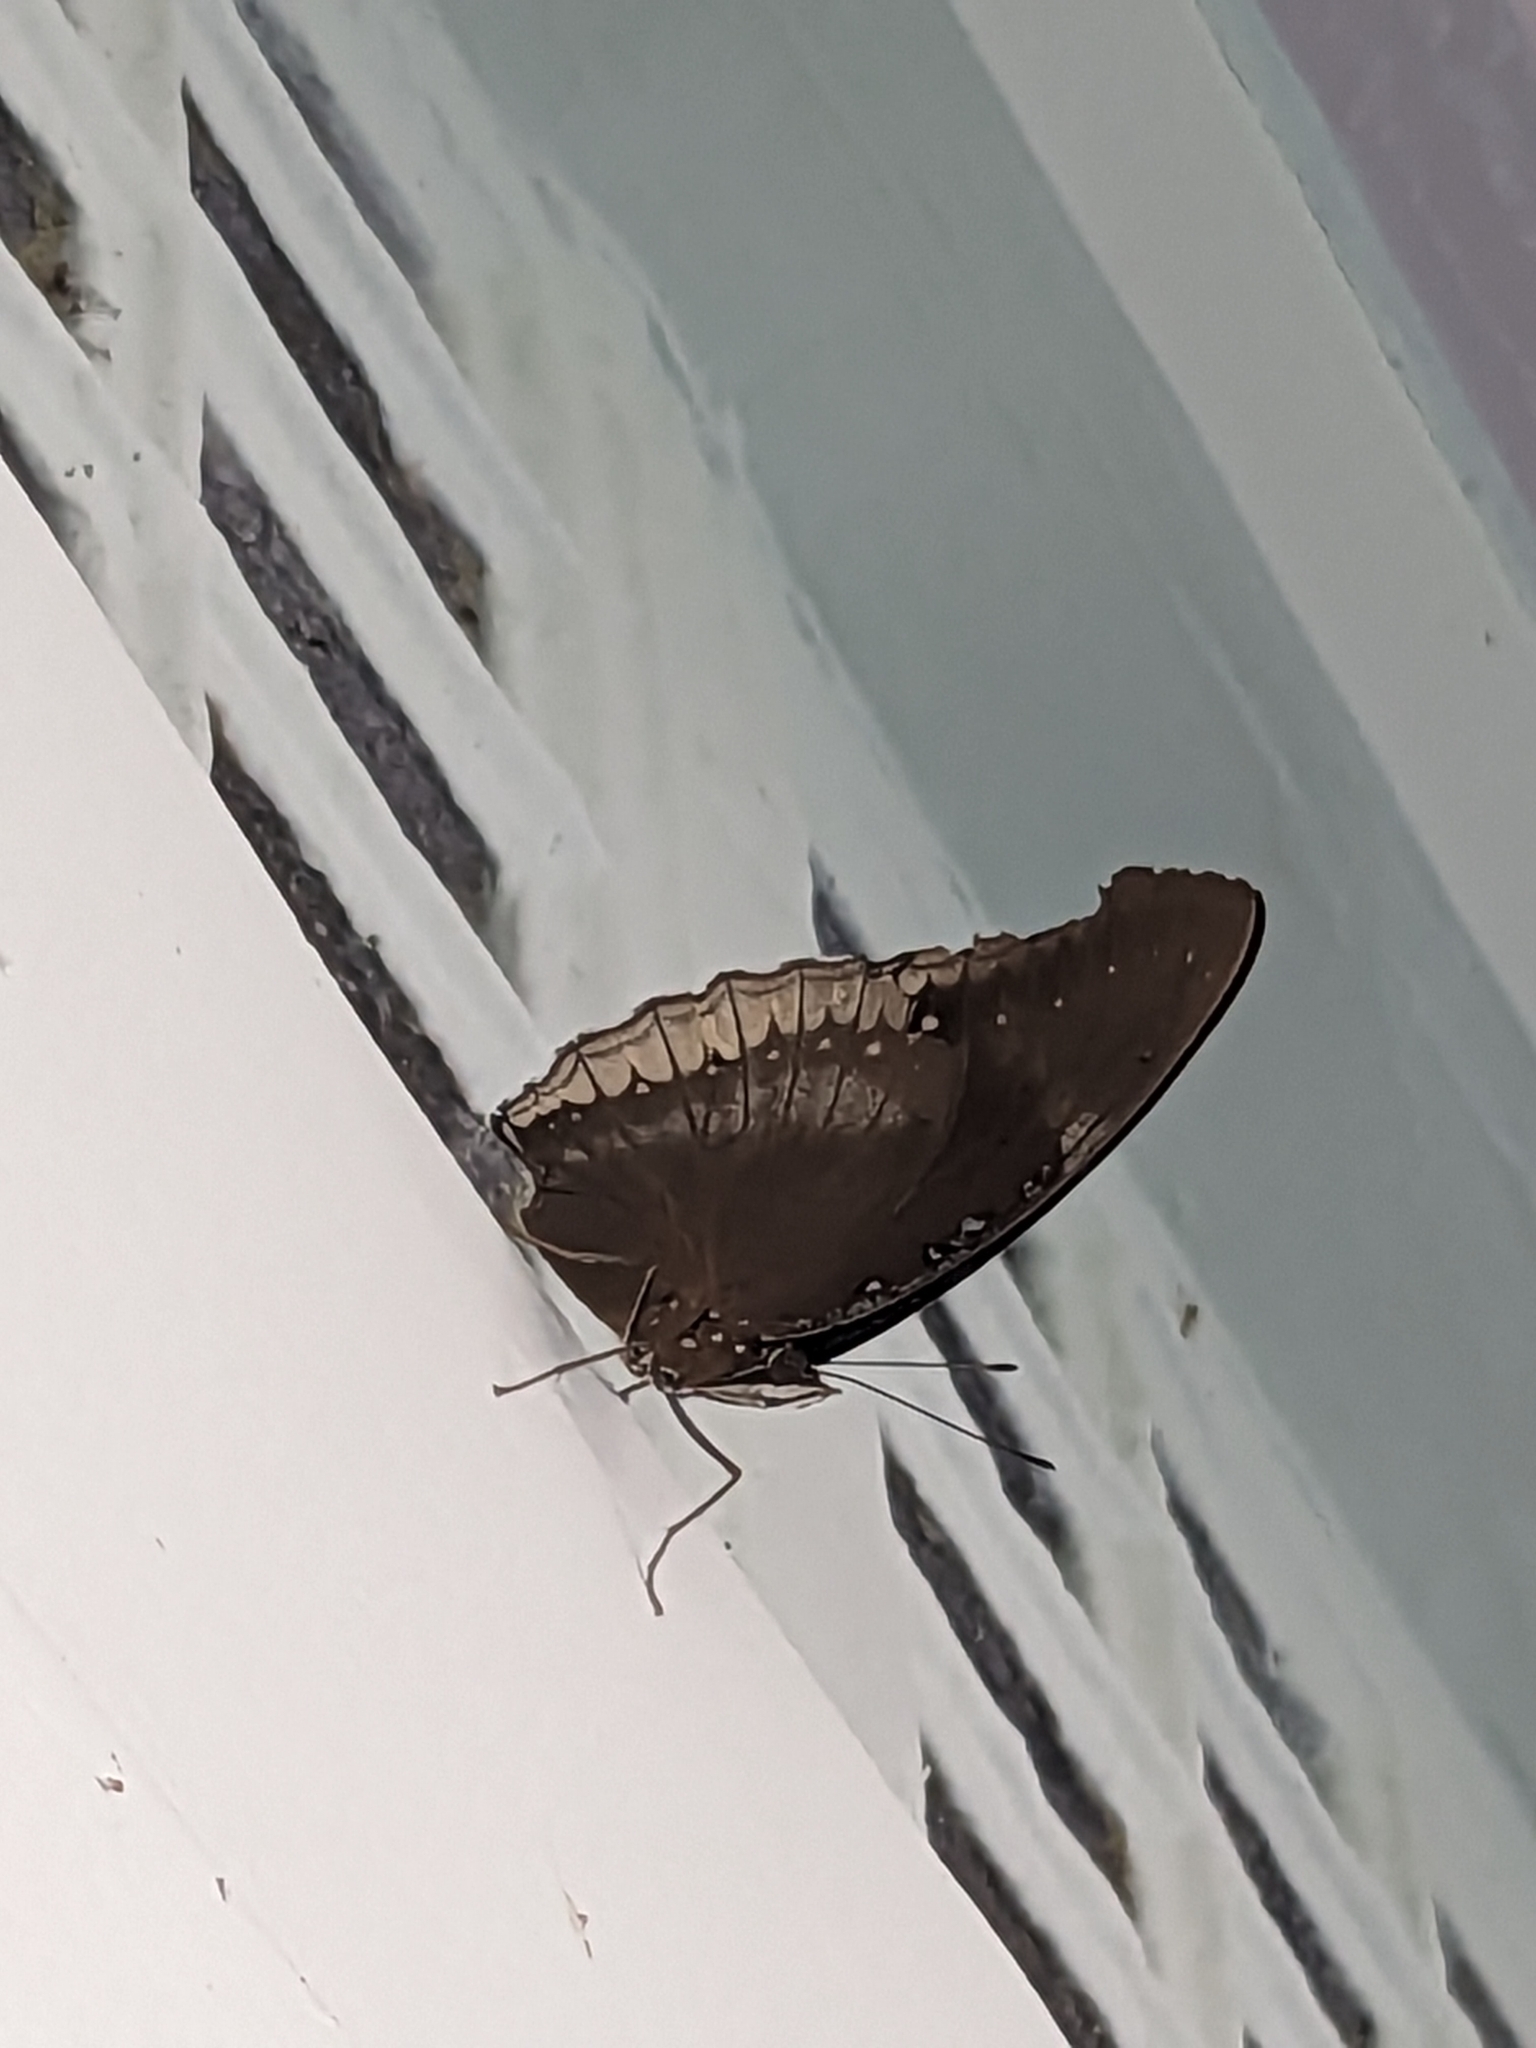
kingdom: Animalia
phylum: Arthropoda
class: Insecta
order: Lepidoptera
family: Nymphalidae
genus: Hypolimnas
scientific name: Hypolimnas bolina
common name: Great eggfly
